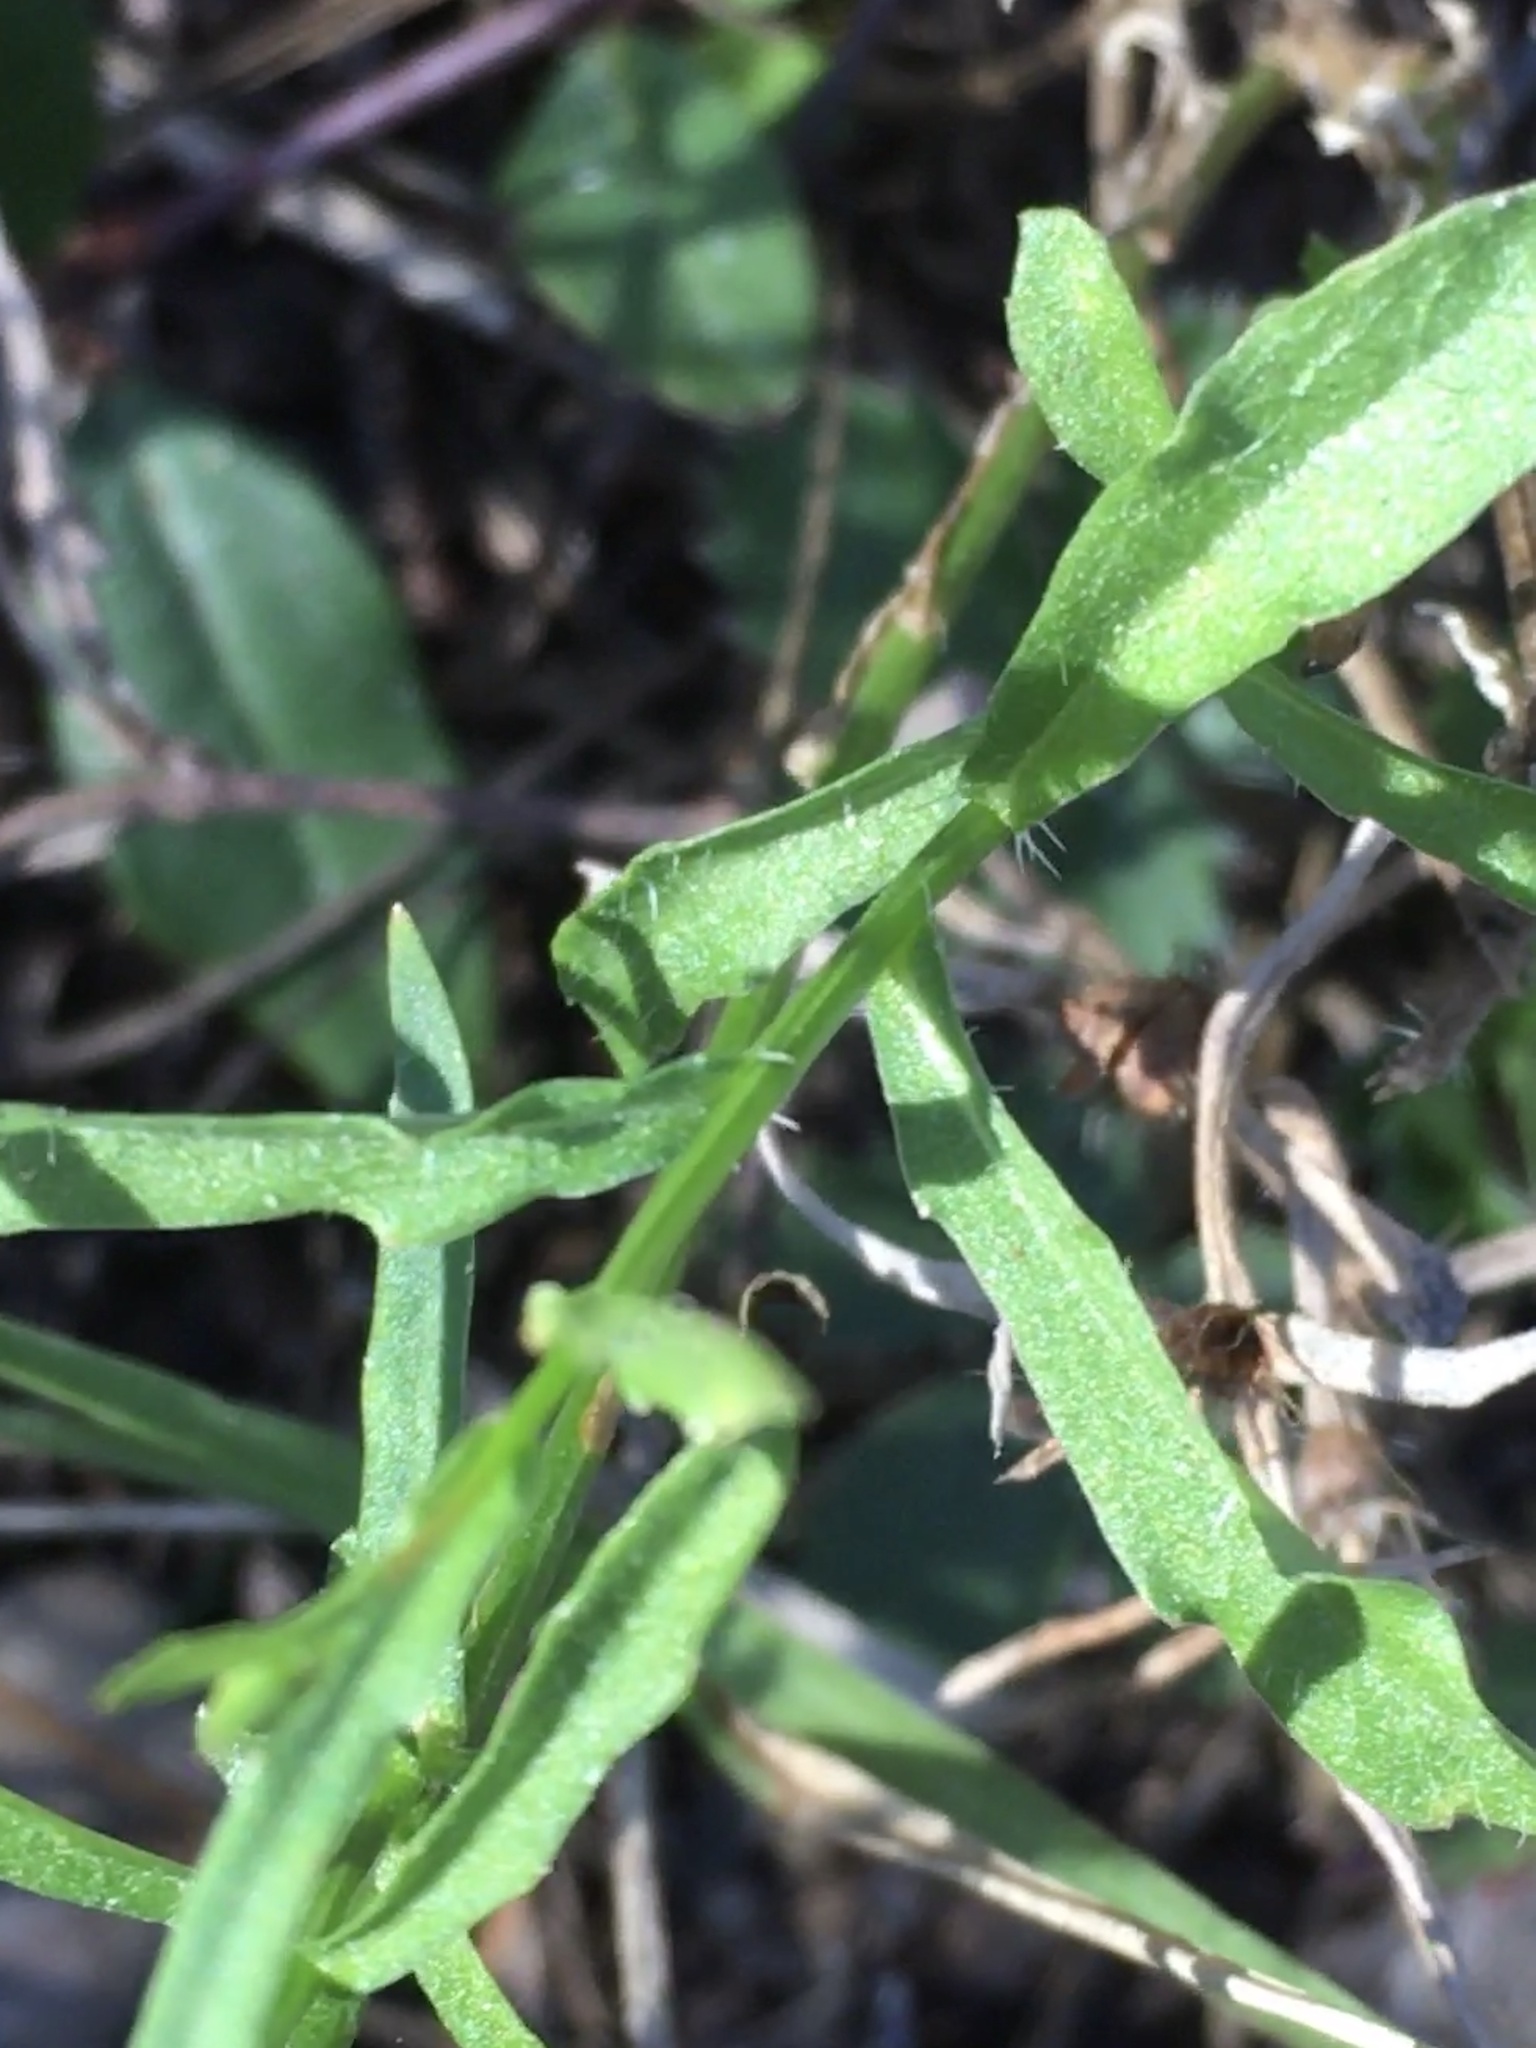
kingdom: Plantae
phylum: Tracheophyta
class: Magnoliopsida
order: Asterales
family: Campanulaceae
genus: Wahlenbergia
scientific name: Wahlenbergia marginata
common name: Southern rockbell
